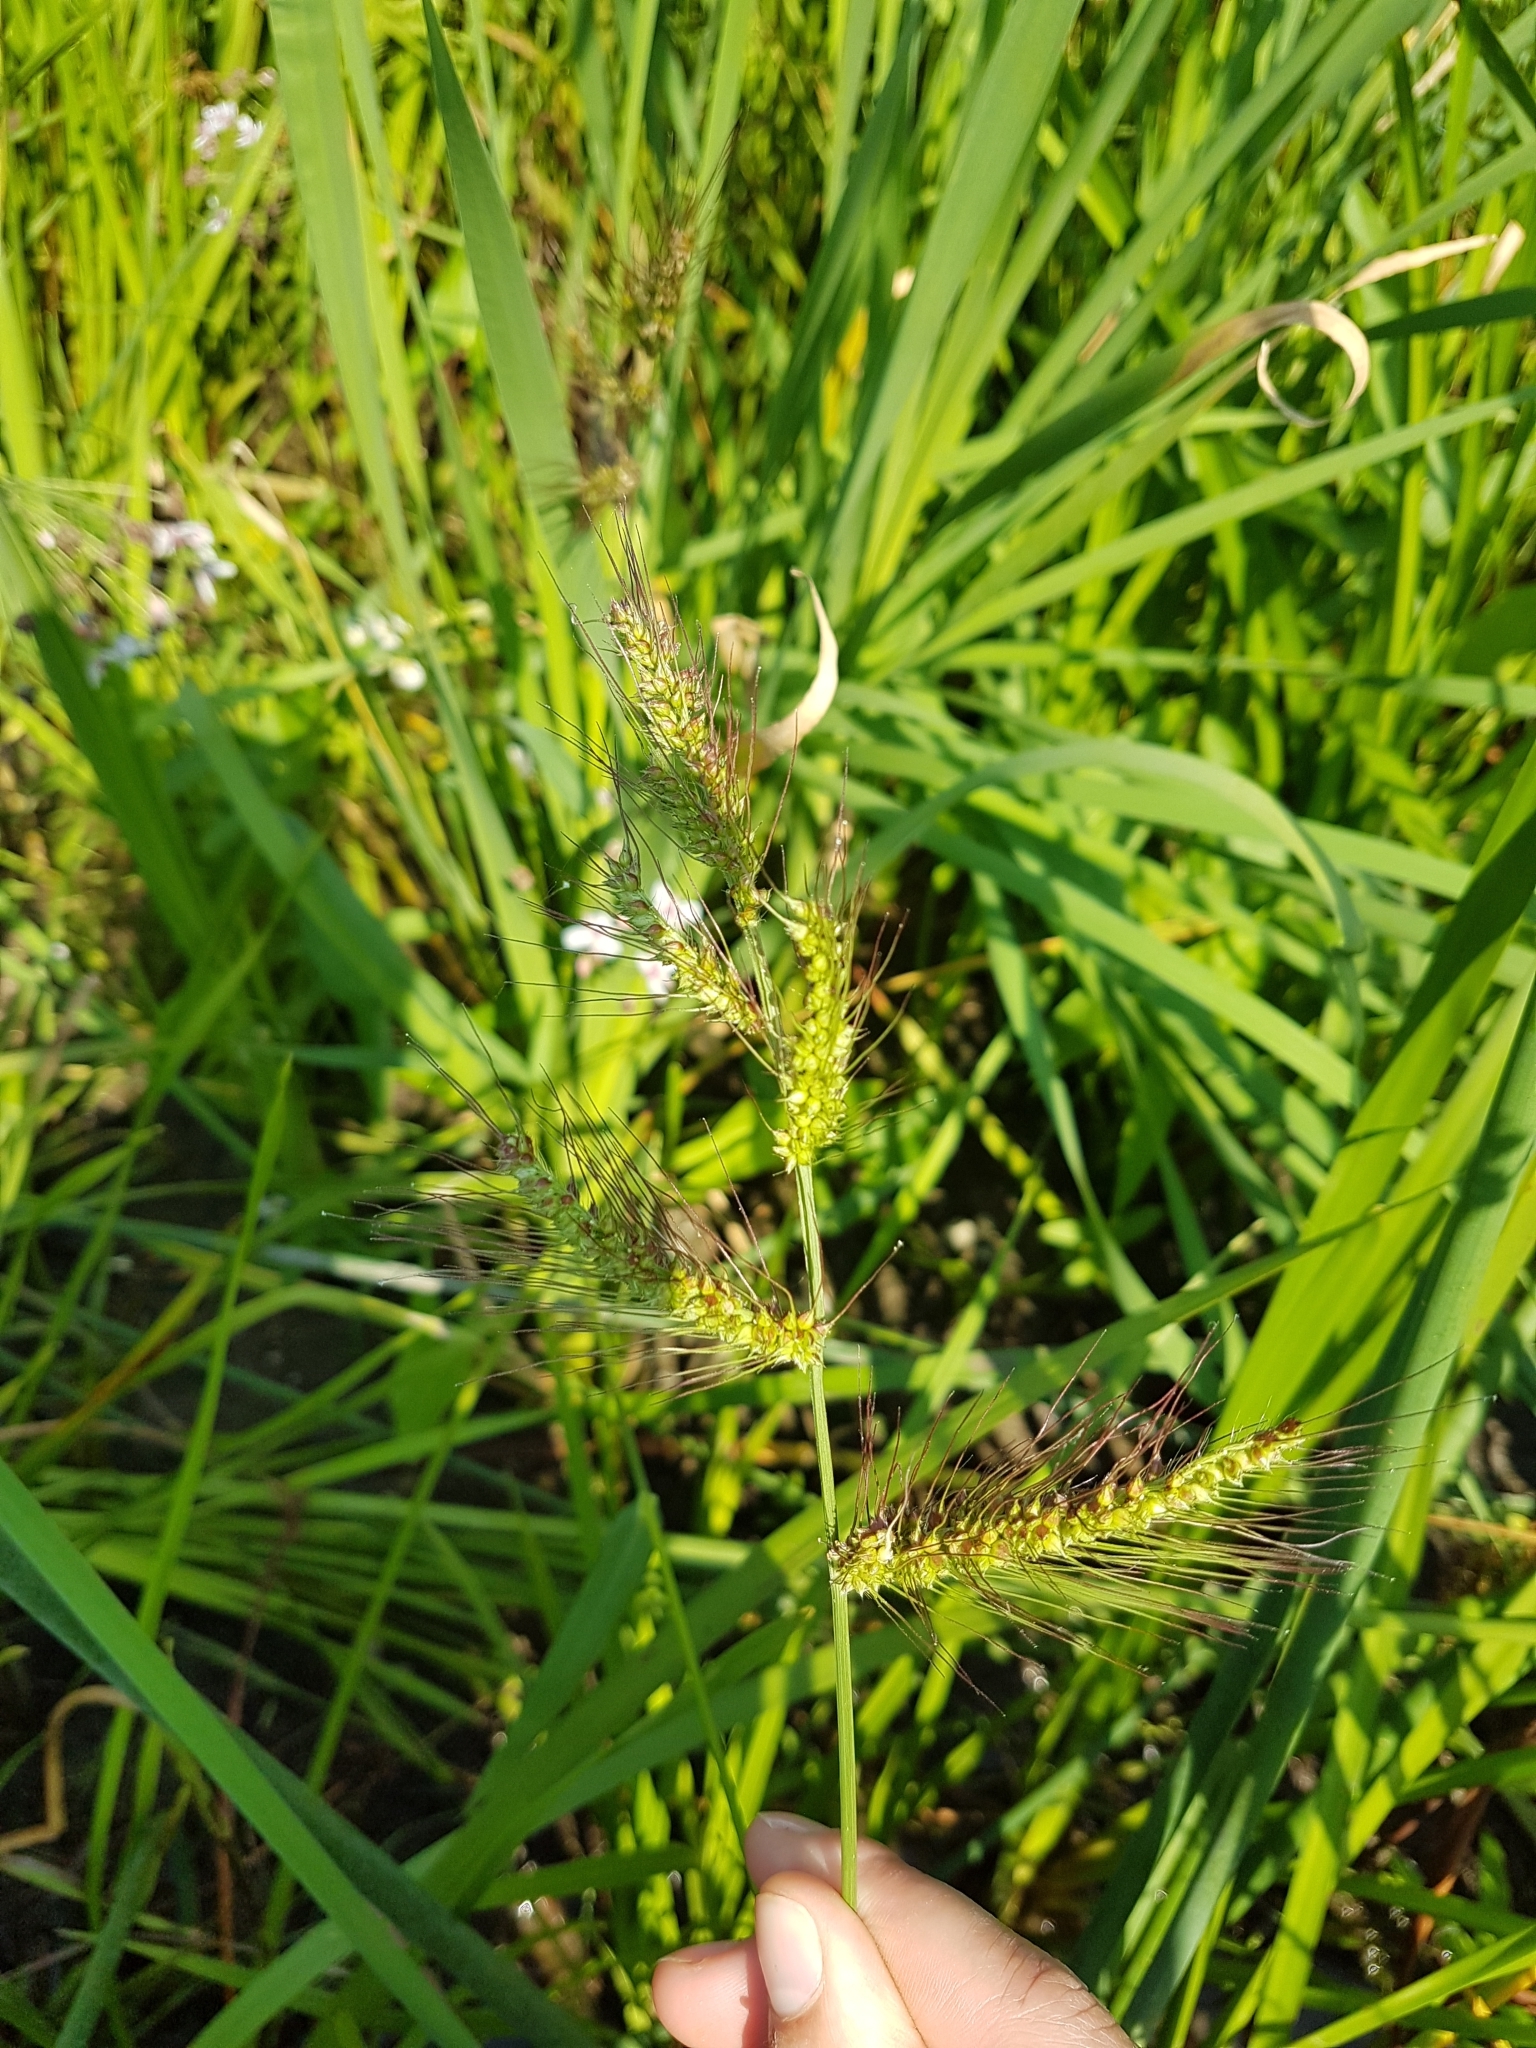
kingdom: Plantae
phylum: Tracheophyta
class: Liliopsida
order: Poales
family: Poaceae
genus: Echinochloa
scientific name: Echinochloa muricata
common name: American barnyard grass
